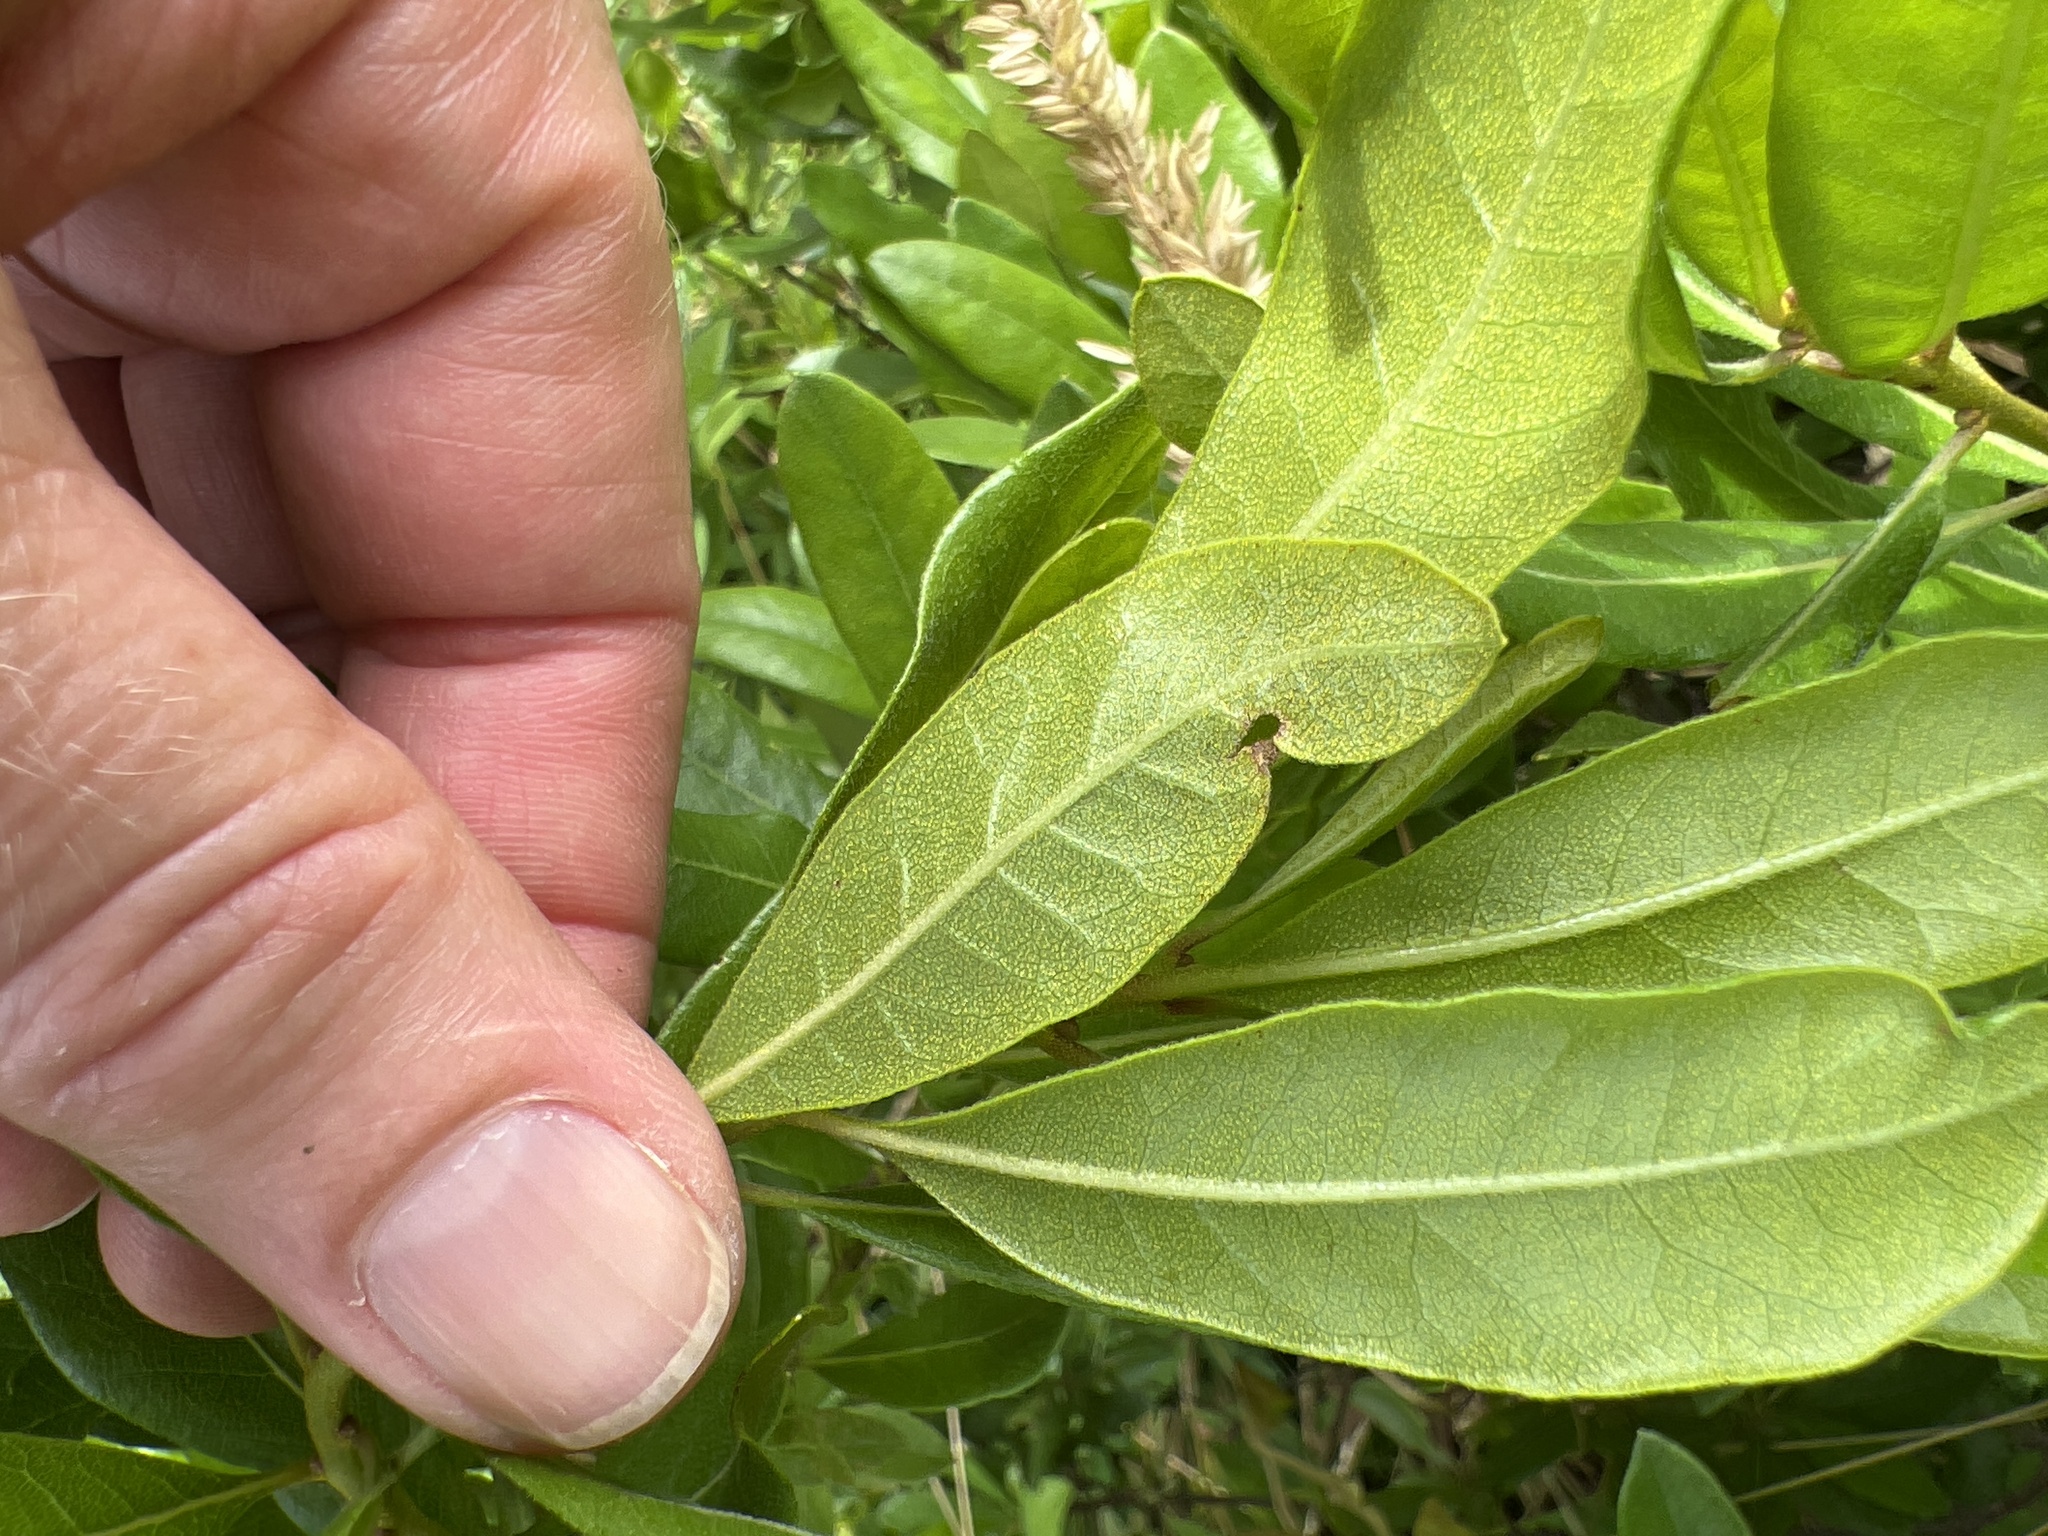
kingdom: Plantae
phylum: Tracheophyta
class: Magnoliopsida
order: Fagales
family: Myricaceae
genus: Morella
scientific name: Morella pensylvanica
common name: Northern bayberry
